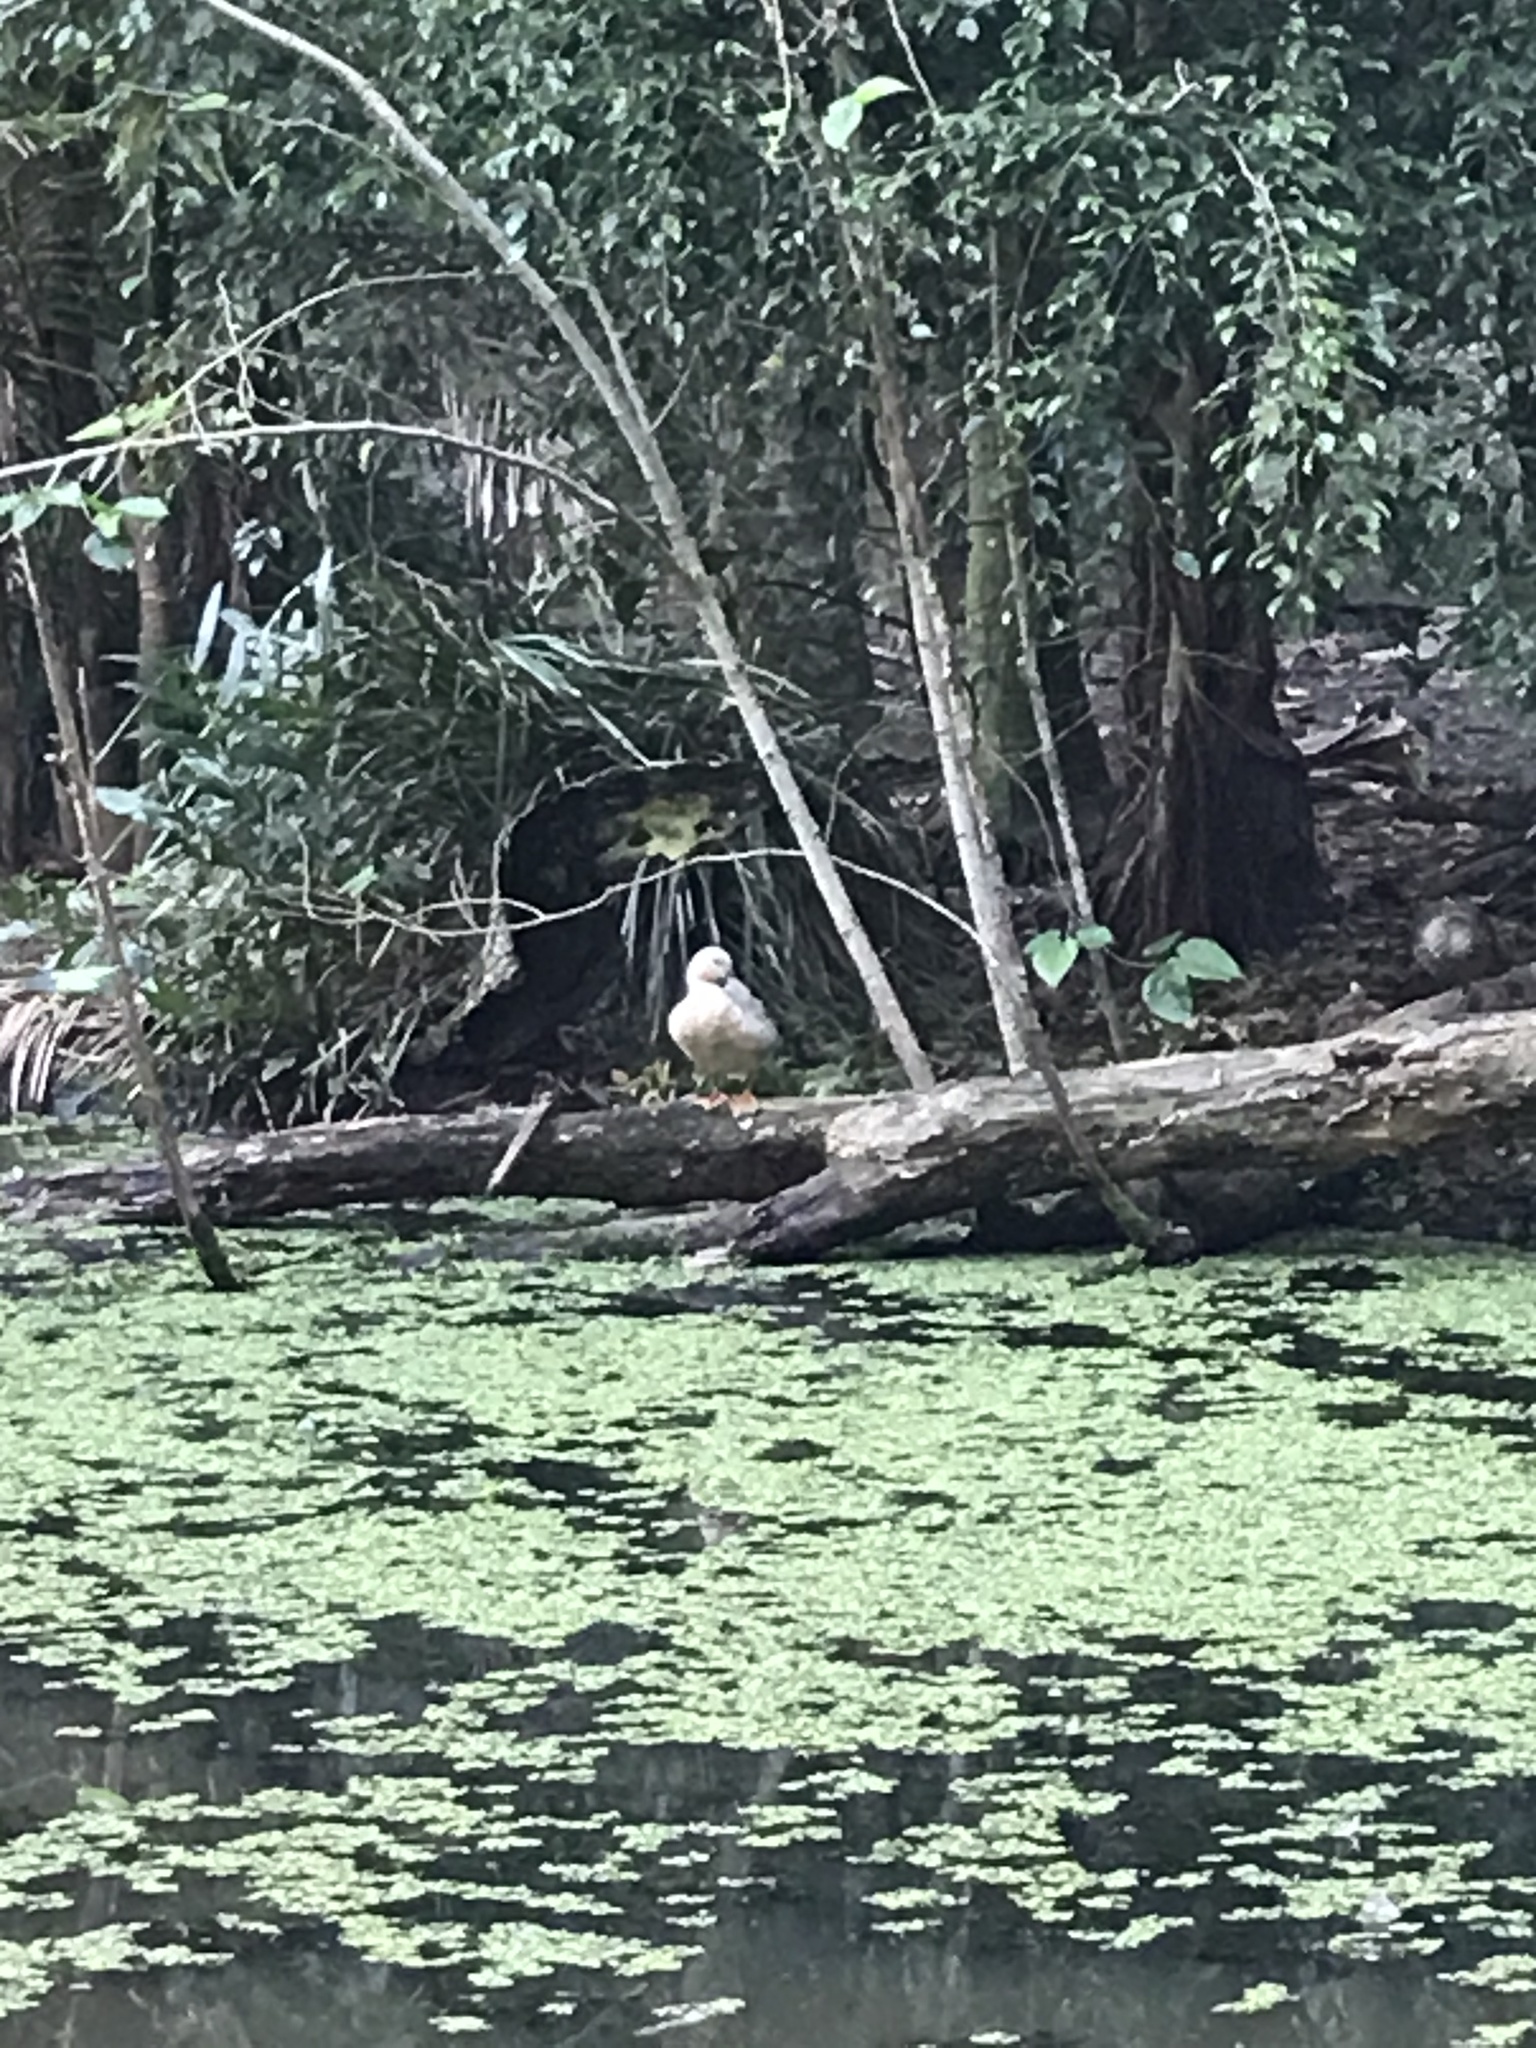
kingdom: Animalia
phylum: Chordata
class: Aves
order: Anseriformes
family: Anatidae
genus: Anas
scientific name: Anas platyrhynchos
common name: Mallard
